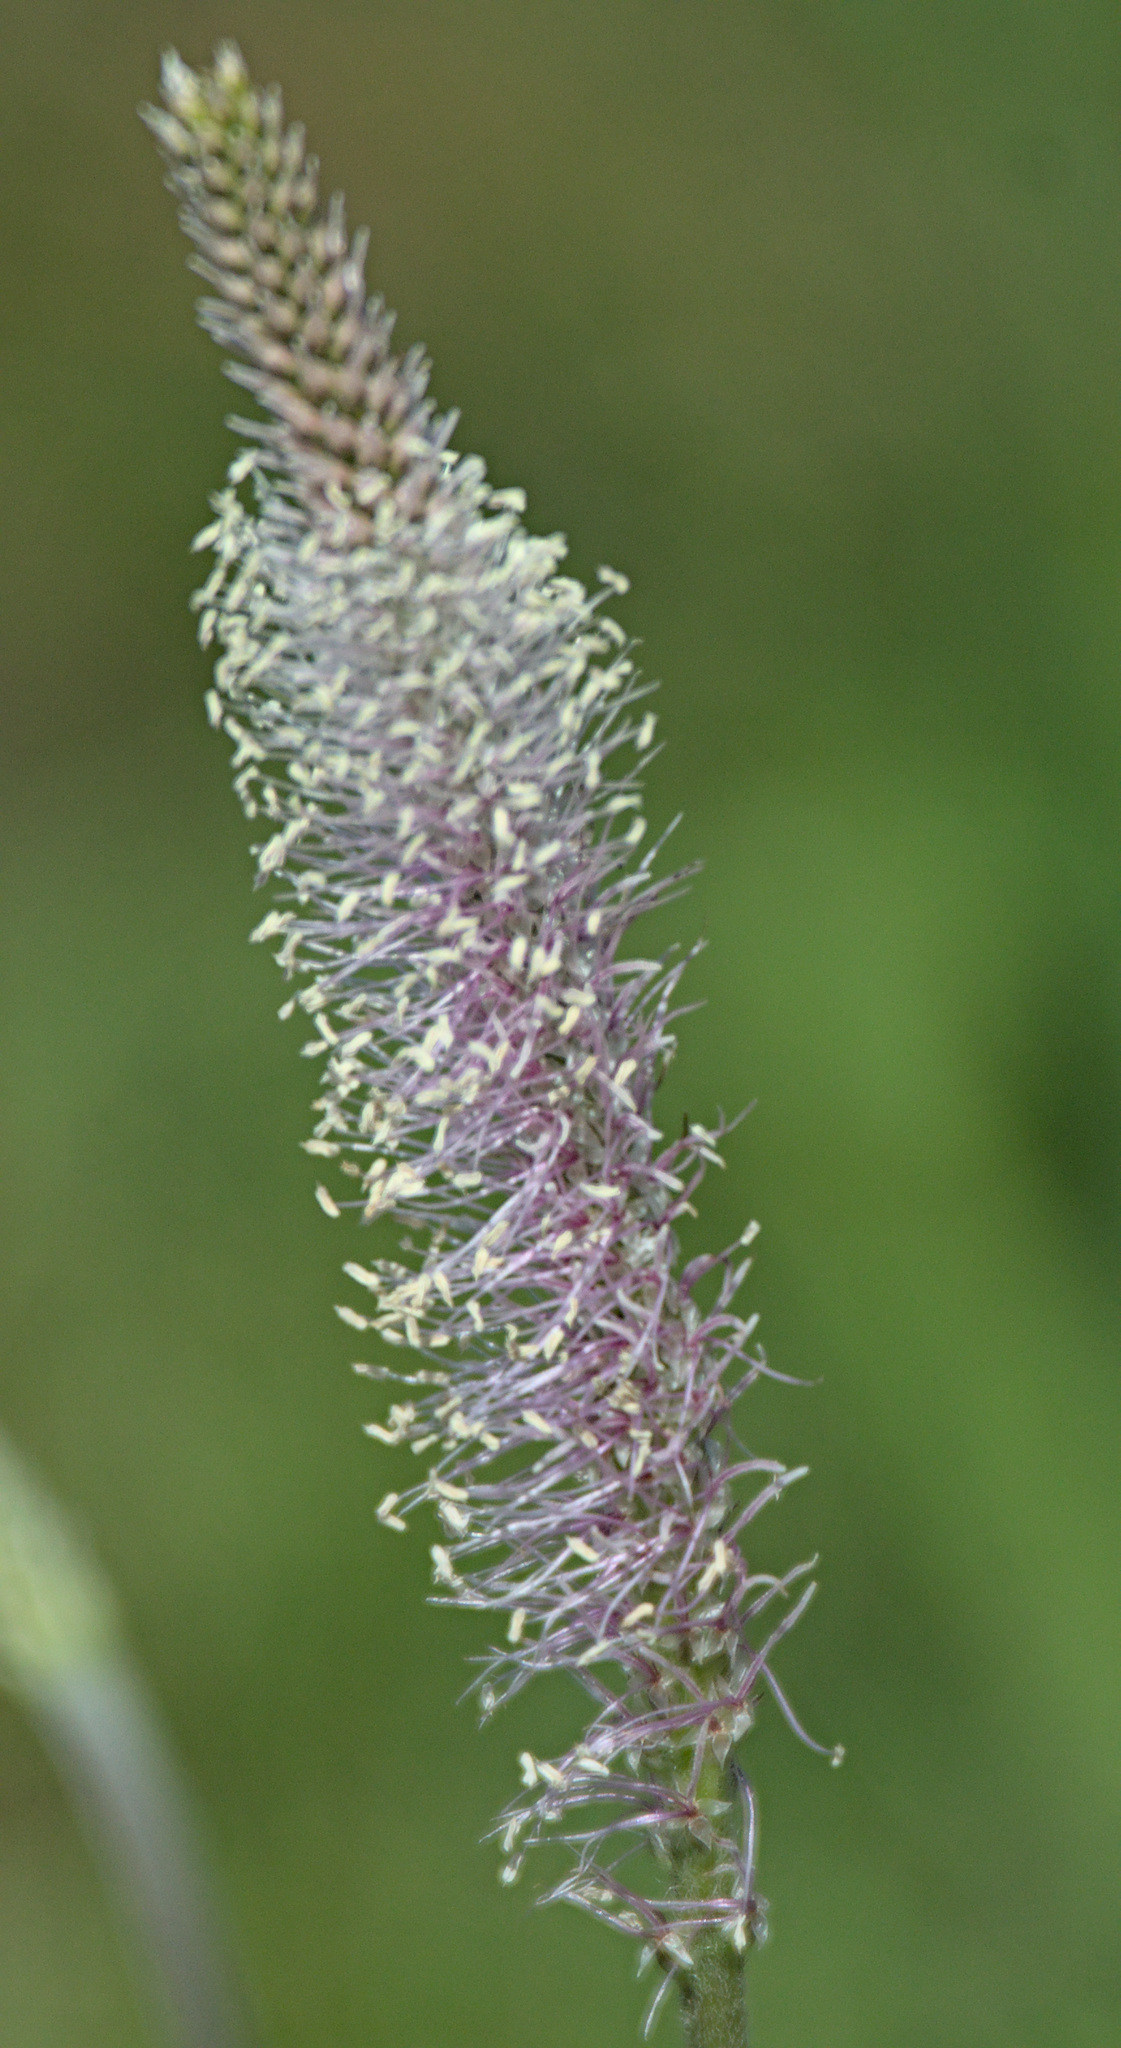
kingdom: Plantae
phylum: Tracheophyta
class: Magnoliopsida
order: Lamiales
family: Plantaginaceae
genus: Plantago
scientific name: Plantago urvillei
